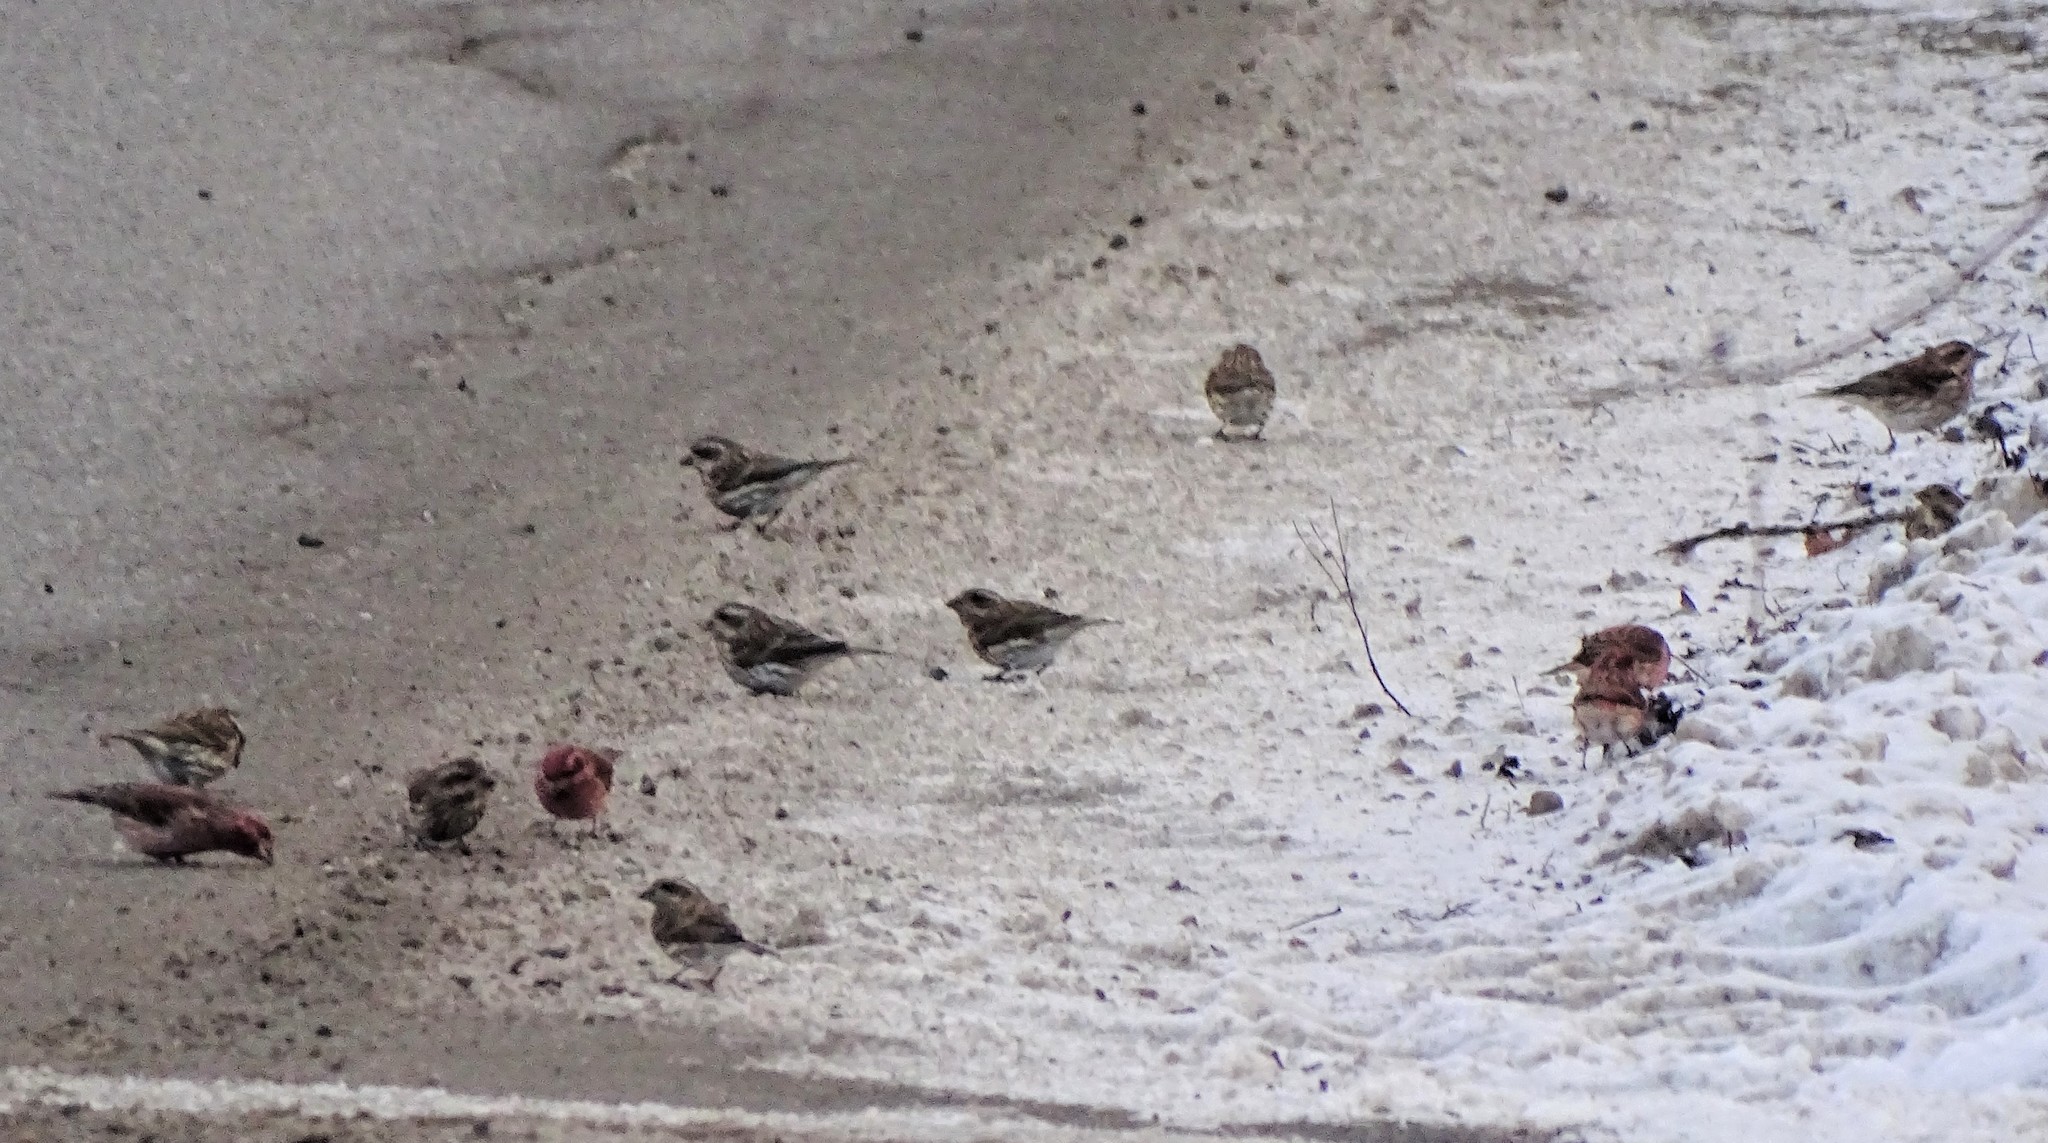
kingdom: Animalia
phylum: Chordata
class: Aves
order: Passeriformes
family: Fringillidae
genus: Haemorhous
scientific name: Haemorhous purpureus
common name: Purple finch
